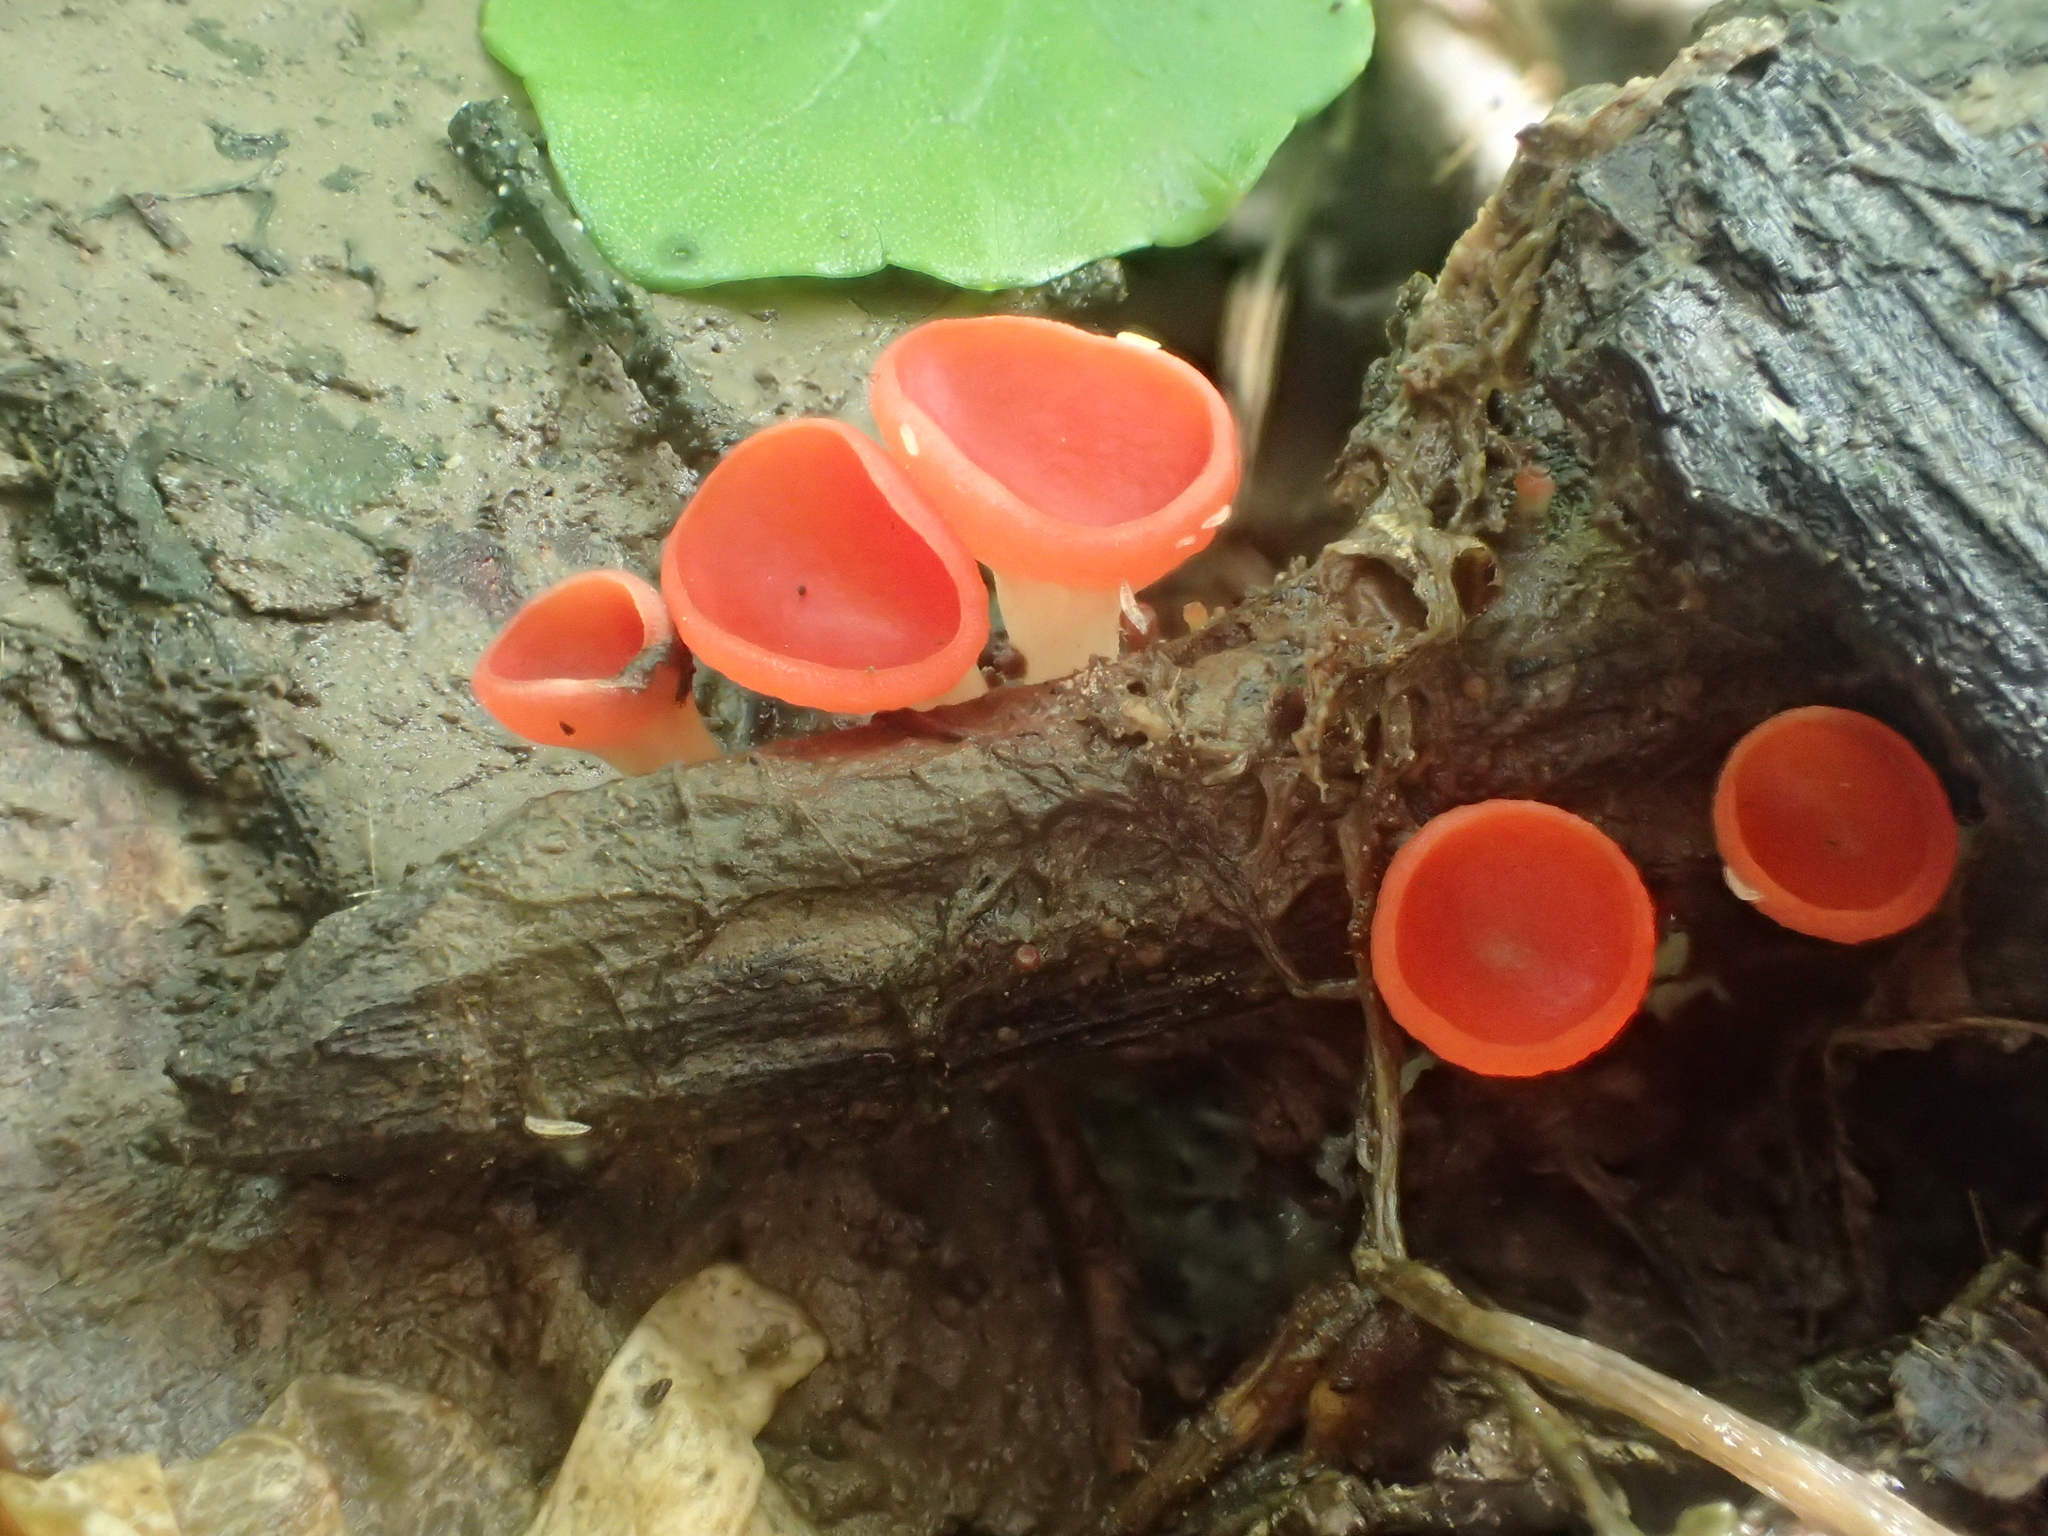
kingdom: Fungi
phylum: Ascomycota
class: Pezizomycetes
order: Pezizales
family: Sarcoscyphaceae
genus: Sarcoscypha
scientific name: Sarcoscypha occidentalis
